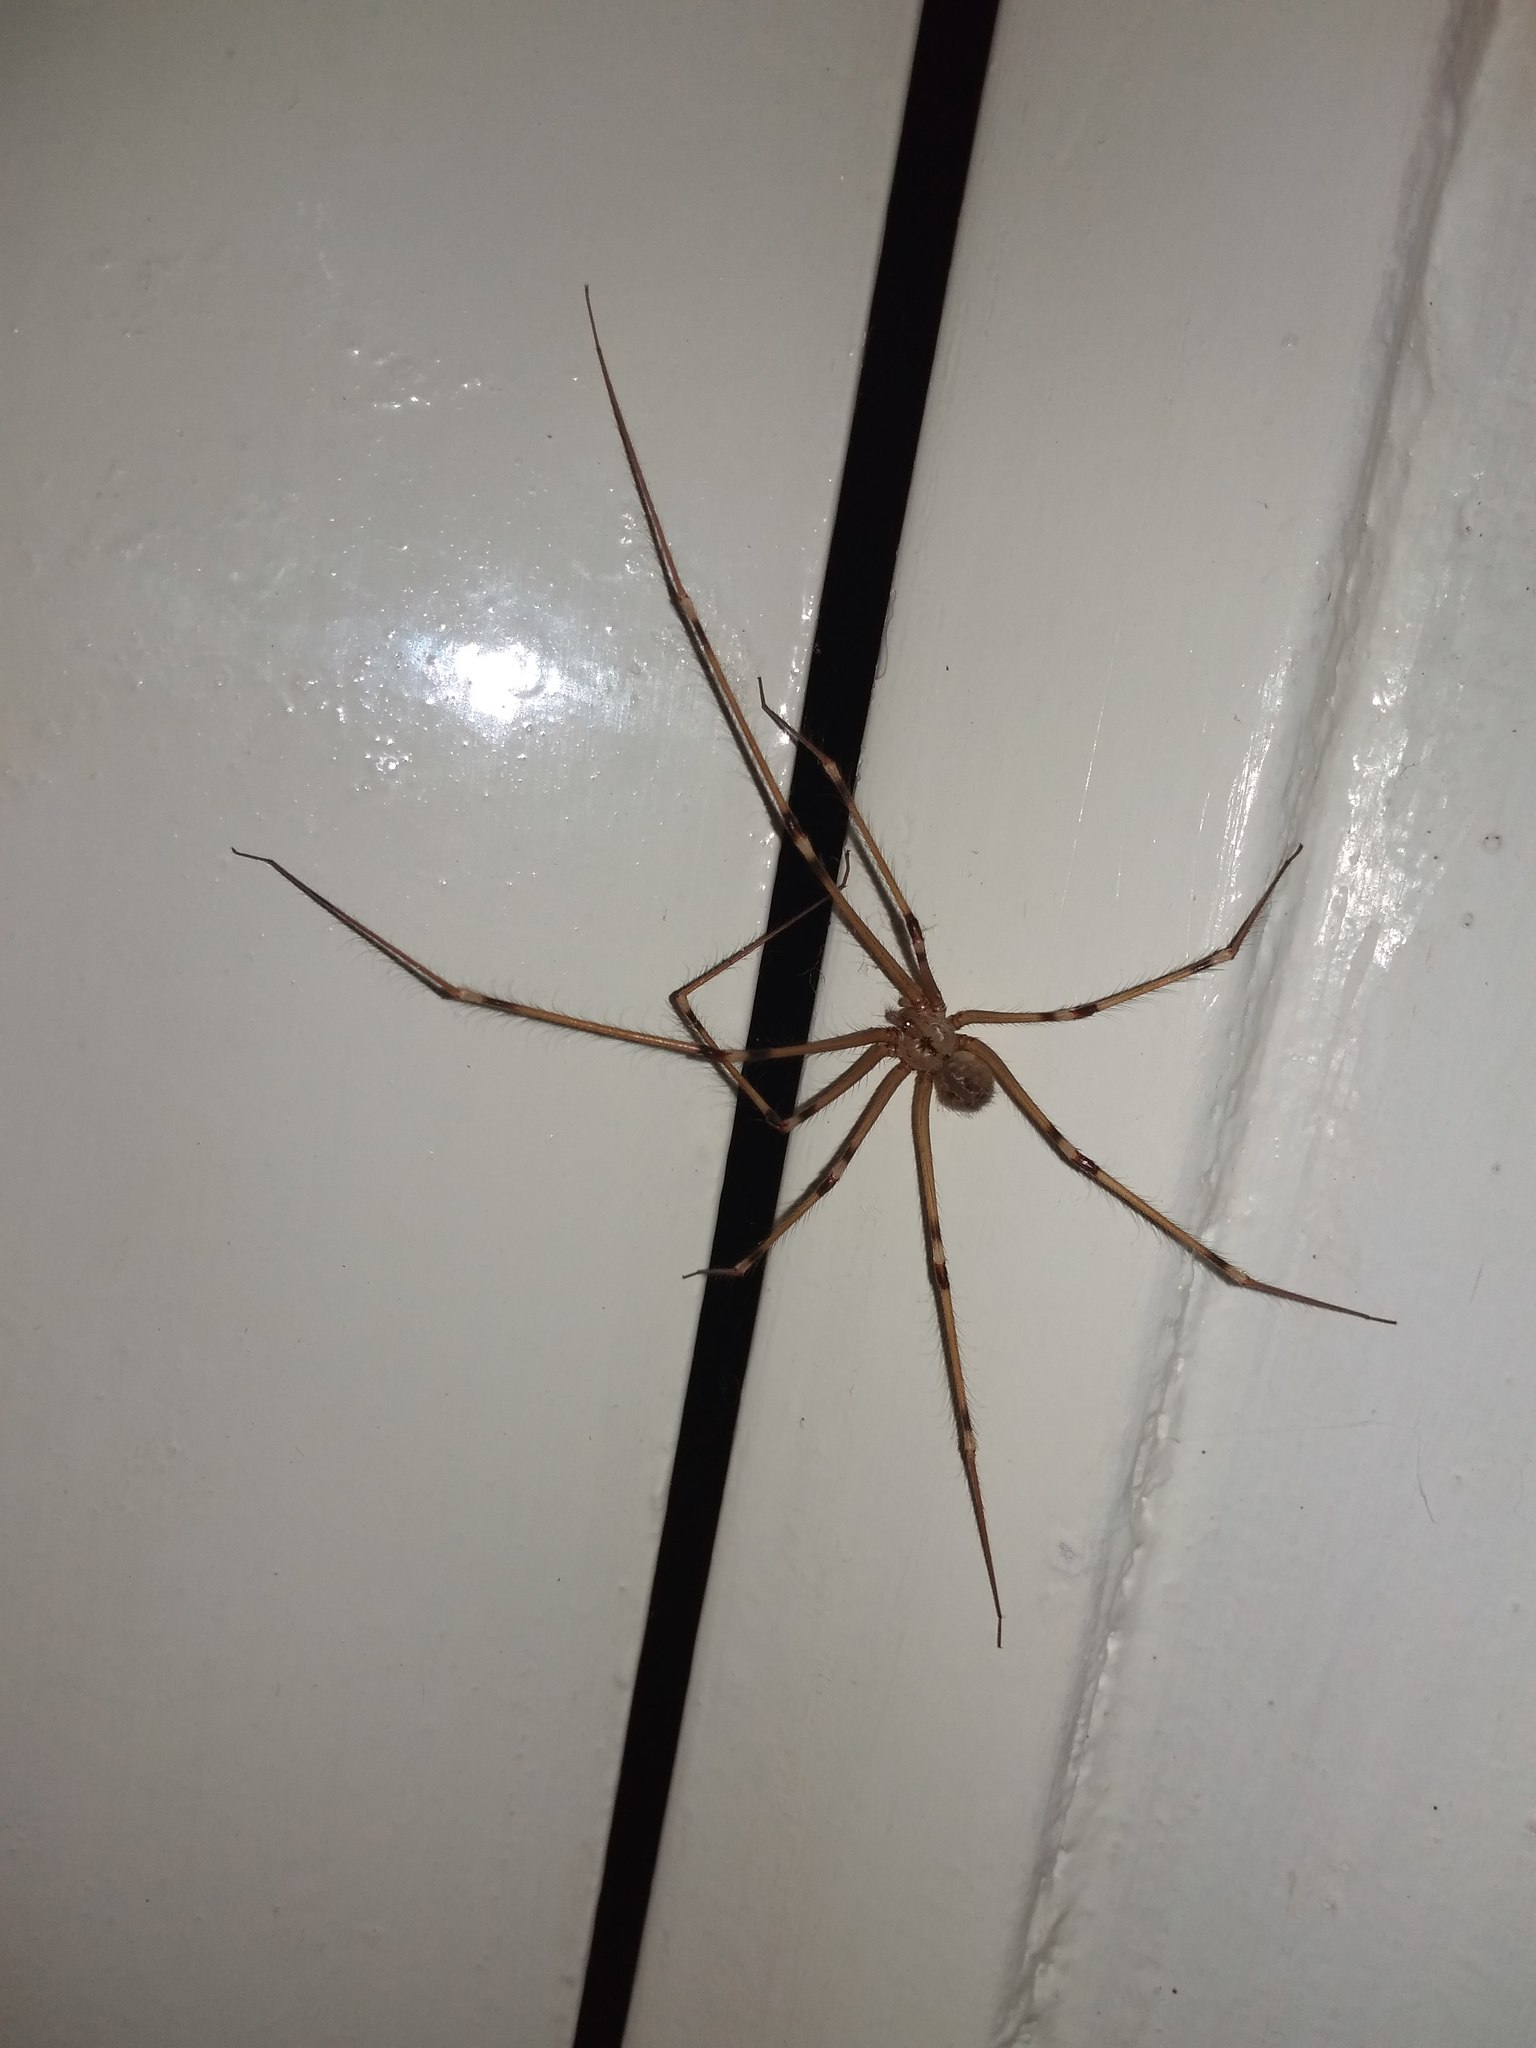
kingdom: Animalia
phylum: Arthropoda
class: Arachnida
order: Araneae
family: Pholcidae
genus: Artema
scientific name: Artema atlanta
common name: Cellar spider
